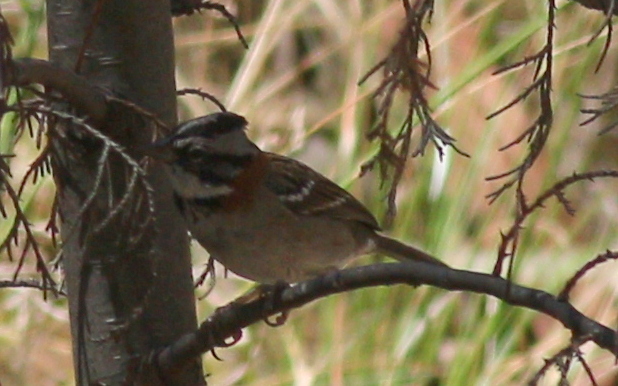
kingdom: Animalia
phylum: Chordata
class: Aves
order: Passeriformes
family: Passerellidae
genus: Zonotrichia
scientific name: Zonotrichia capensis
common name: Rufous-collared sparrow
